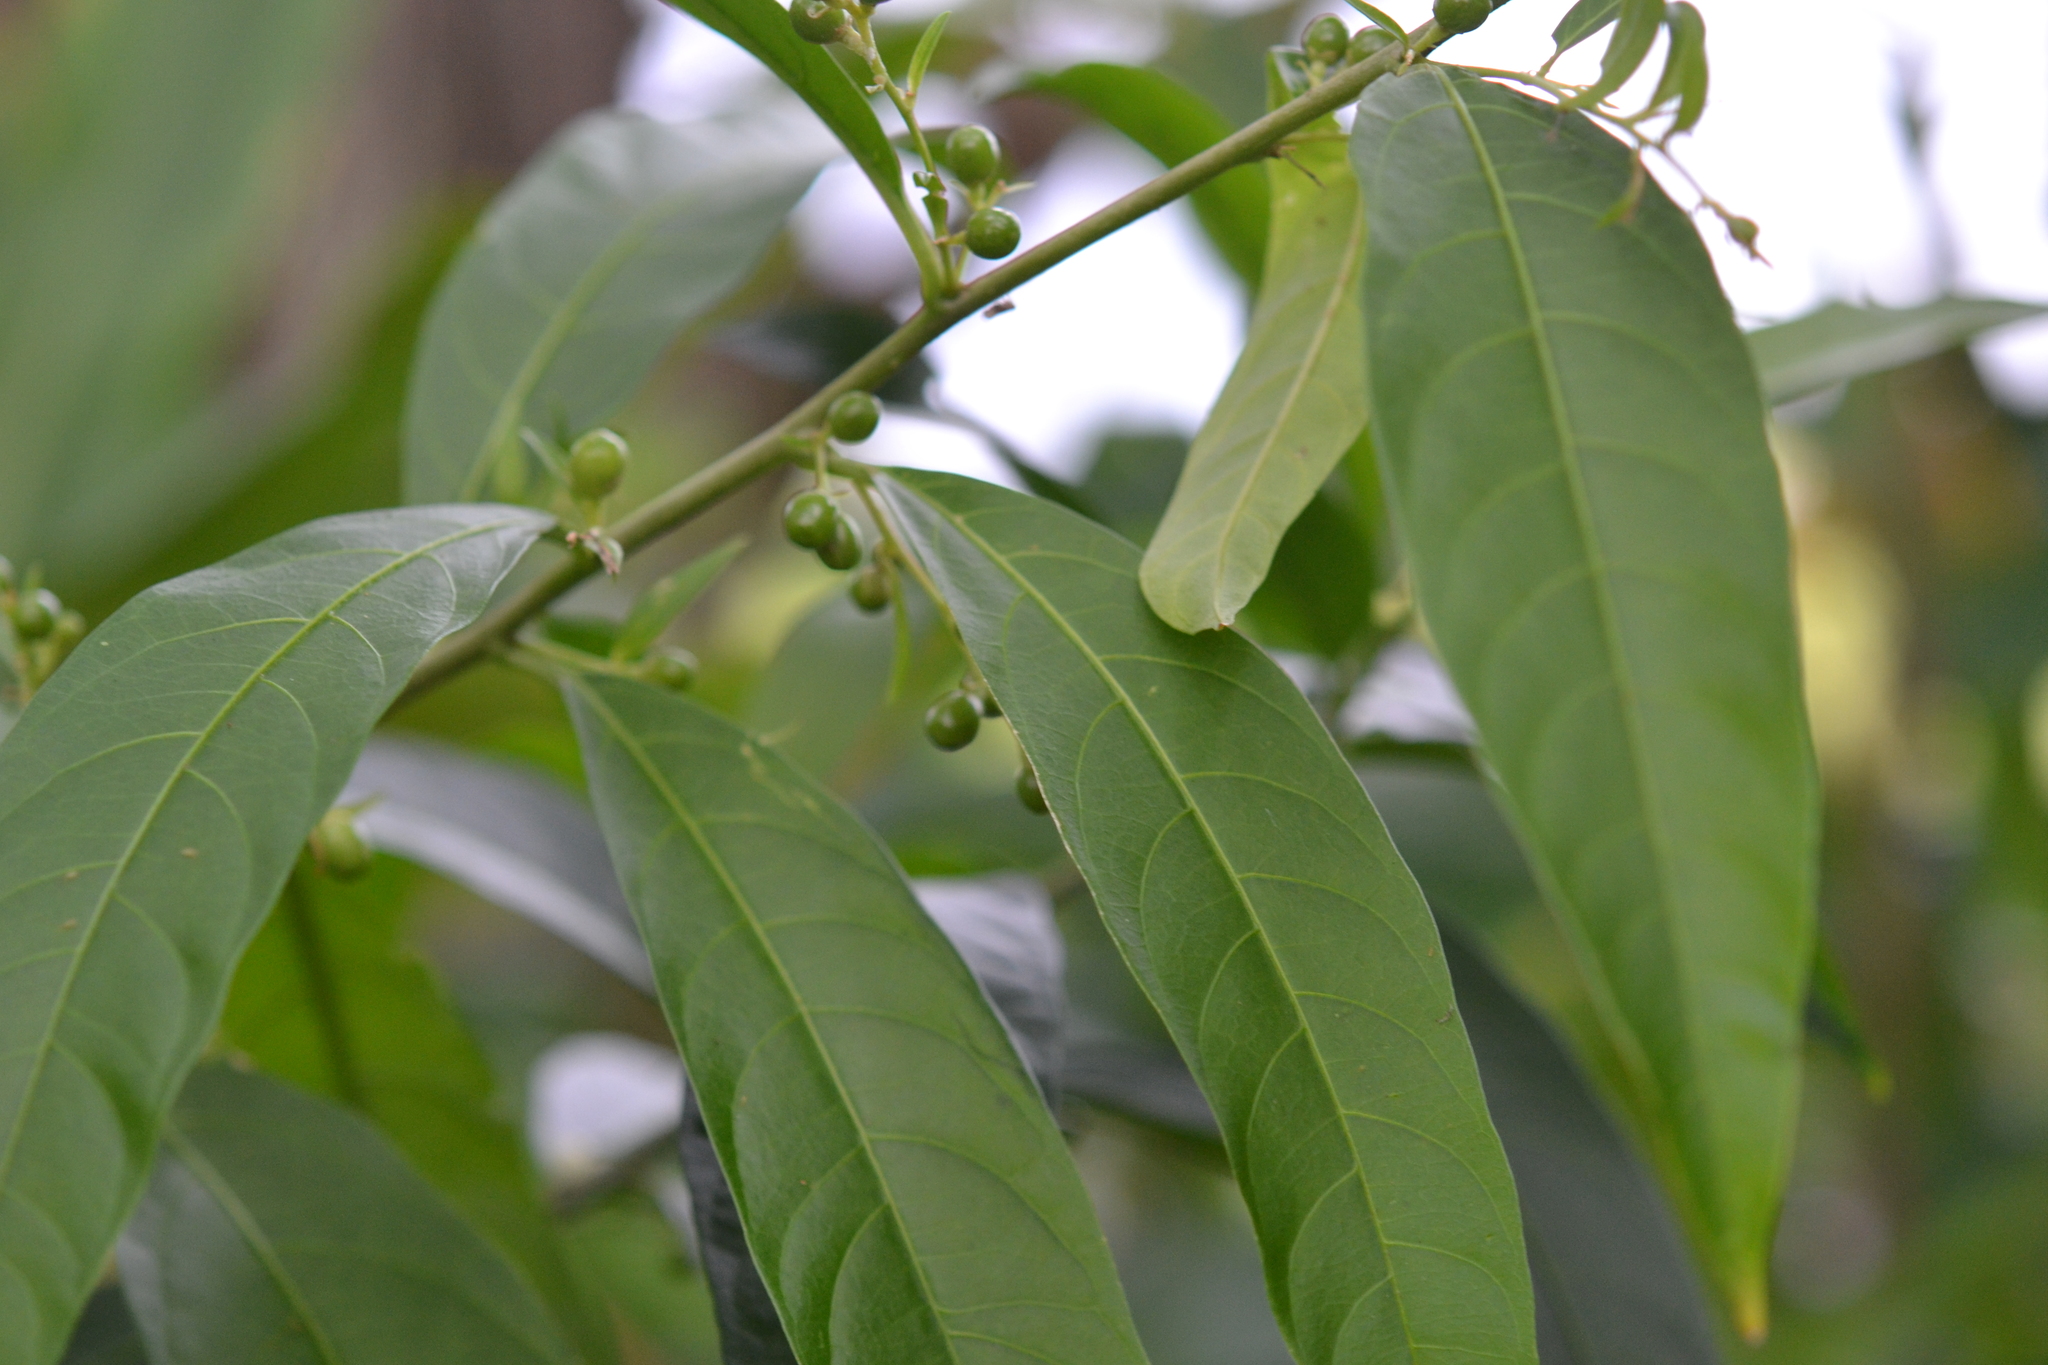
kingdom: Plantae
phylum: Tracheophyta
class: Magnoliopsida
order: Solanales
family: Solanaceae
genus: Cestrum
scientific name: Cestrum nocturnum
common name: Night jessamine
